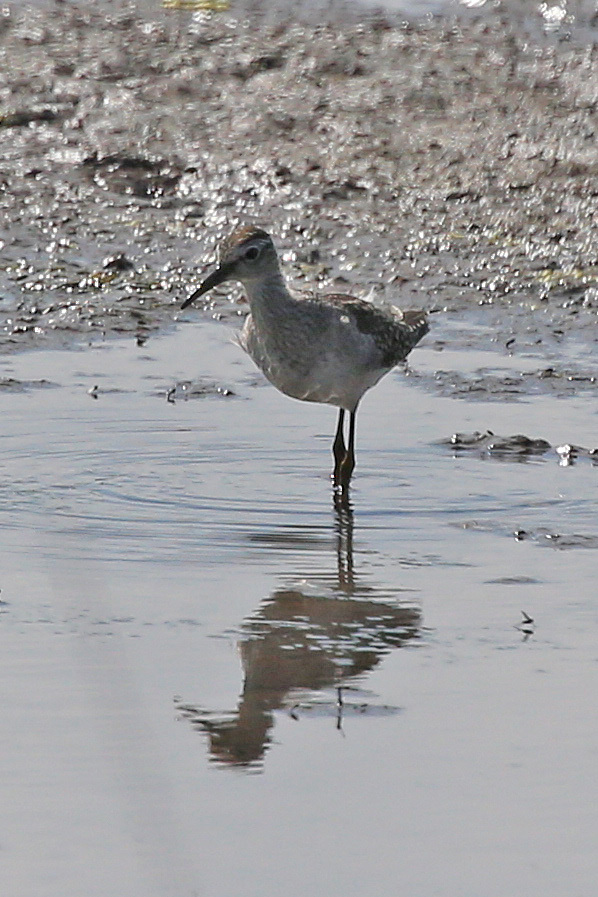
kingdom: Animalia
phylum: Chordata
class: Aves
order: Charadriiformes
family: Scolopacidae
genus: Tringa
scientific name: Tringa glareola
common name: Wood sandpiper
